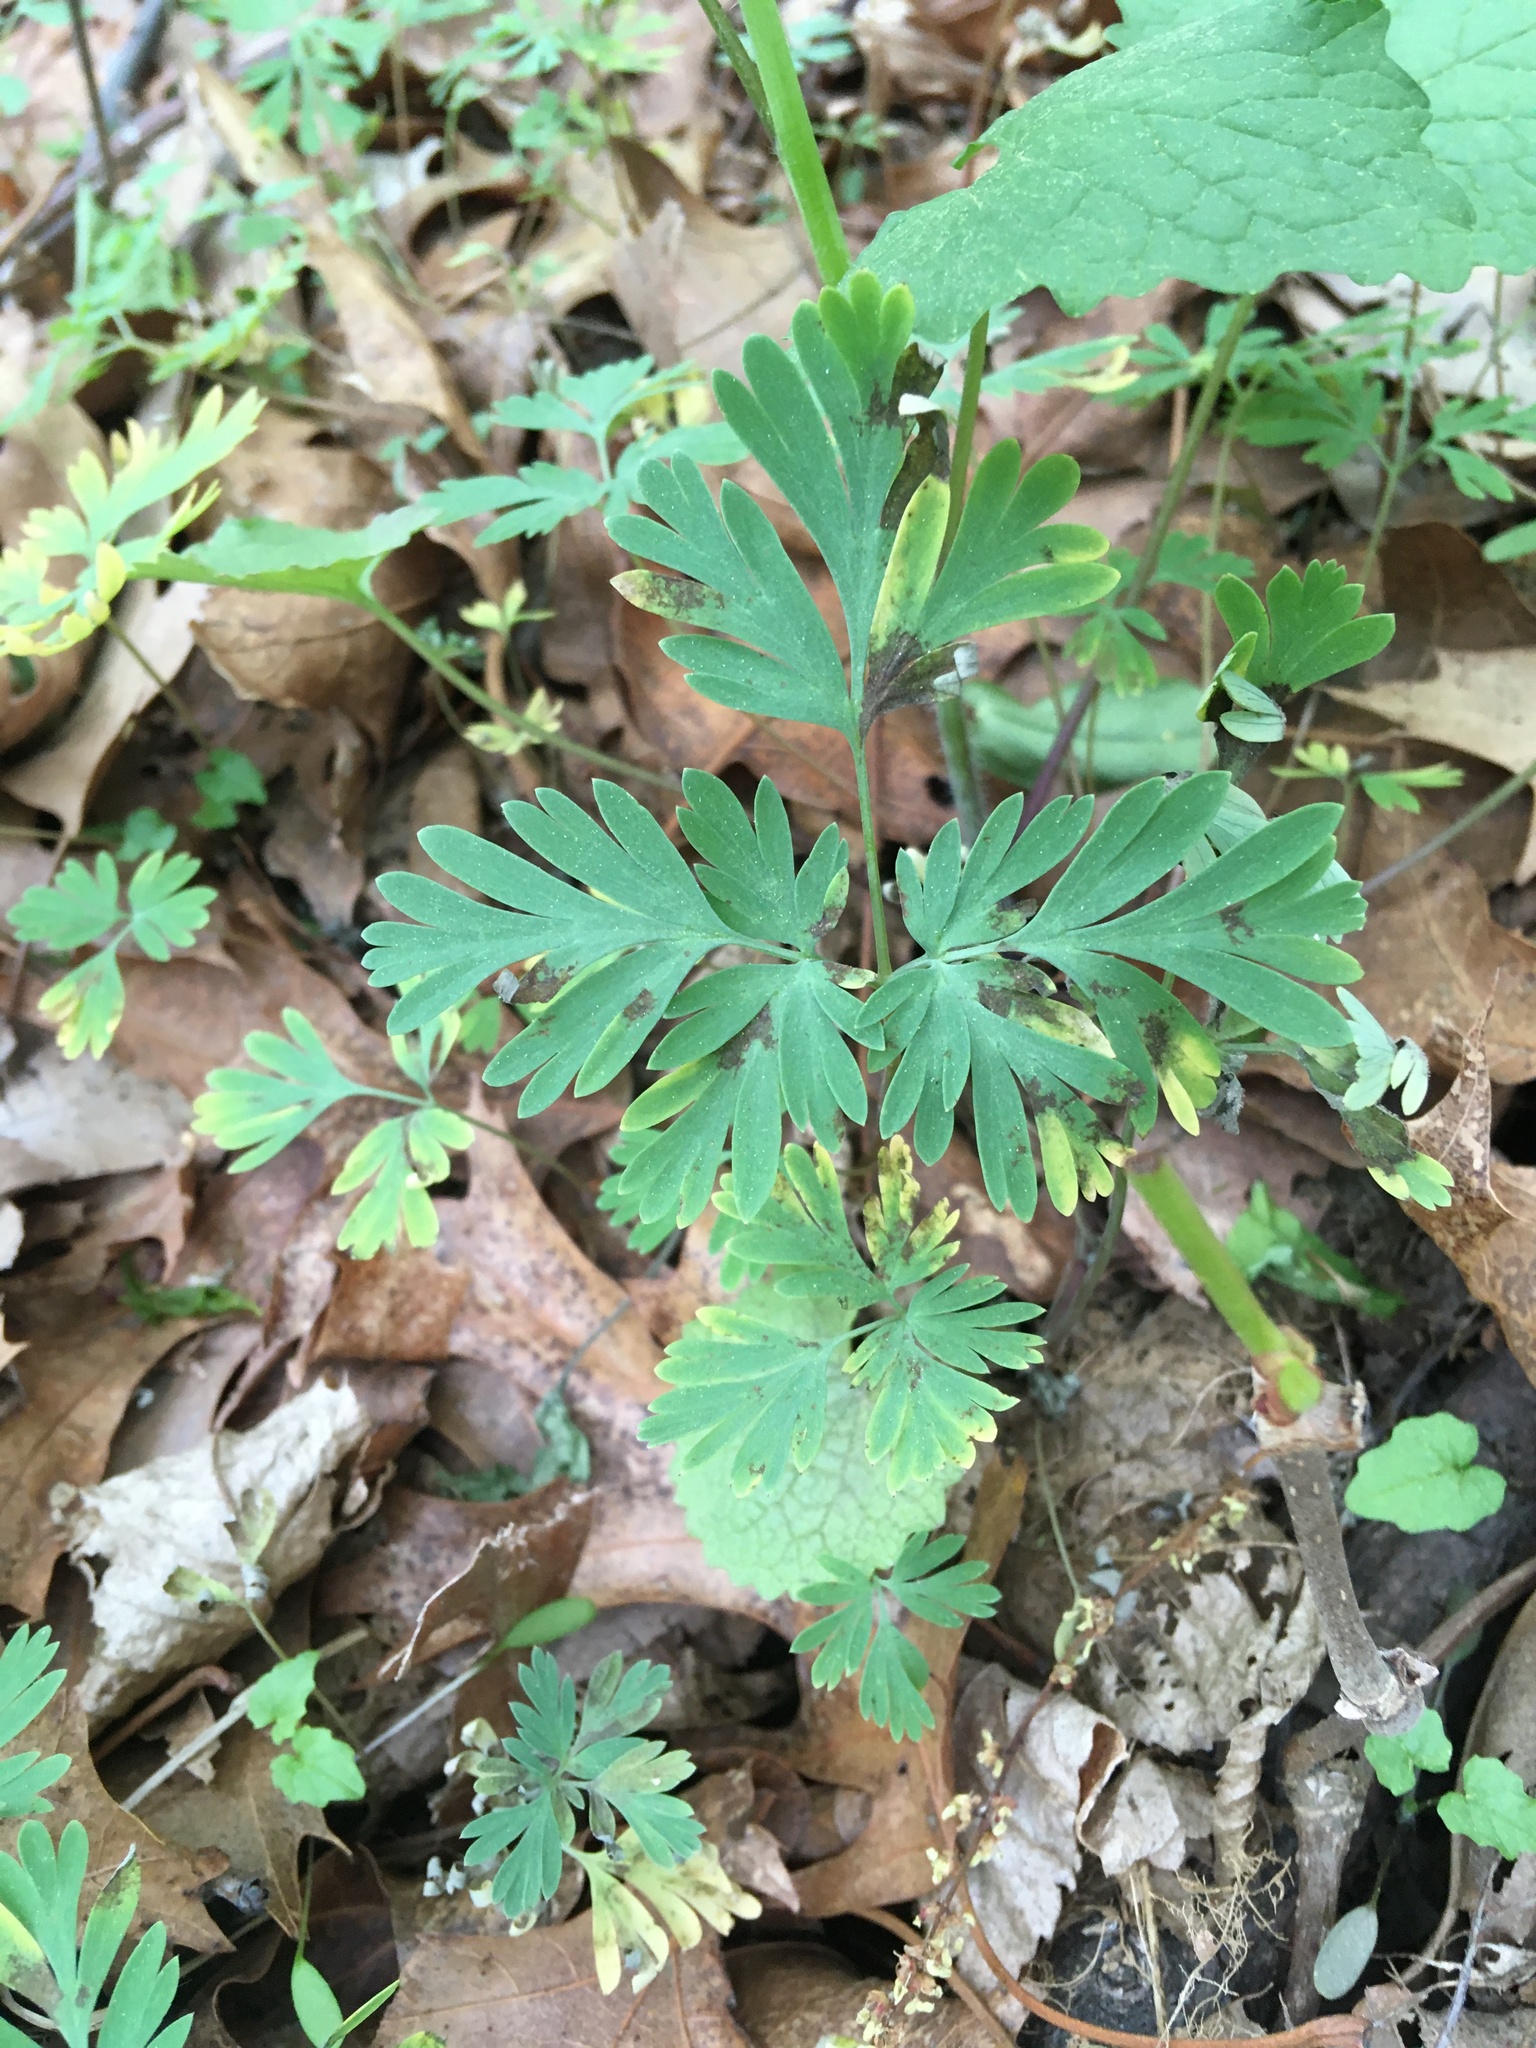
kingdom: Plantae
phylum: Tracheophyta
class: Magnoliopsida
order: Ranunculales
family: Papaveraceae
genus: Dicentra
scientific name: Dicentra cucullaria
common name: Dutchman's breeches
